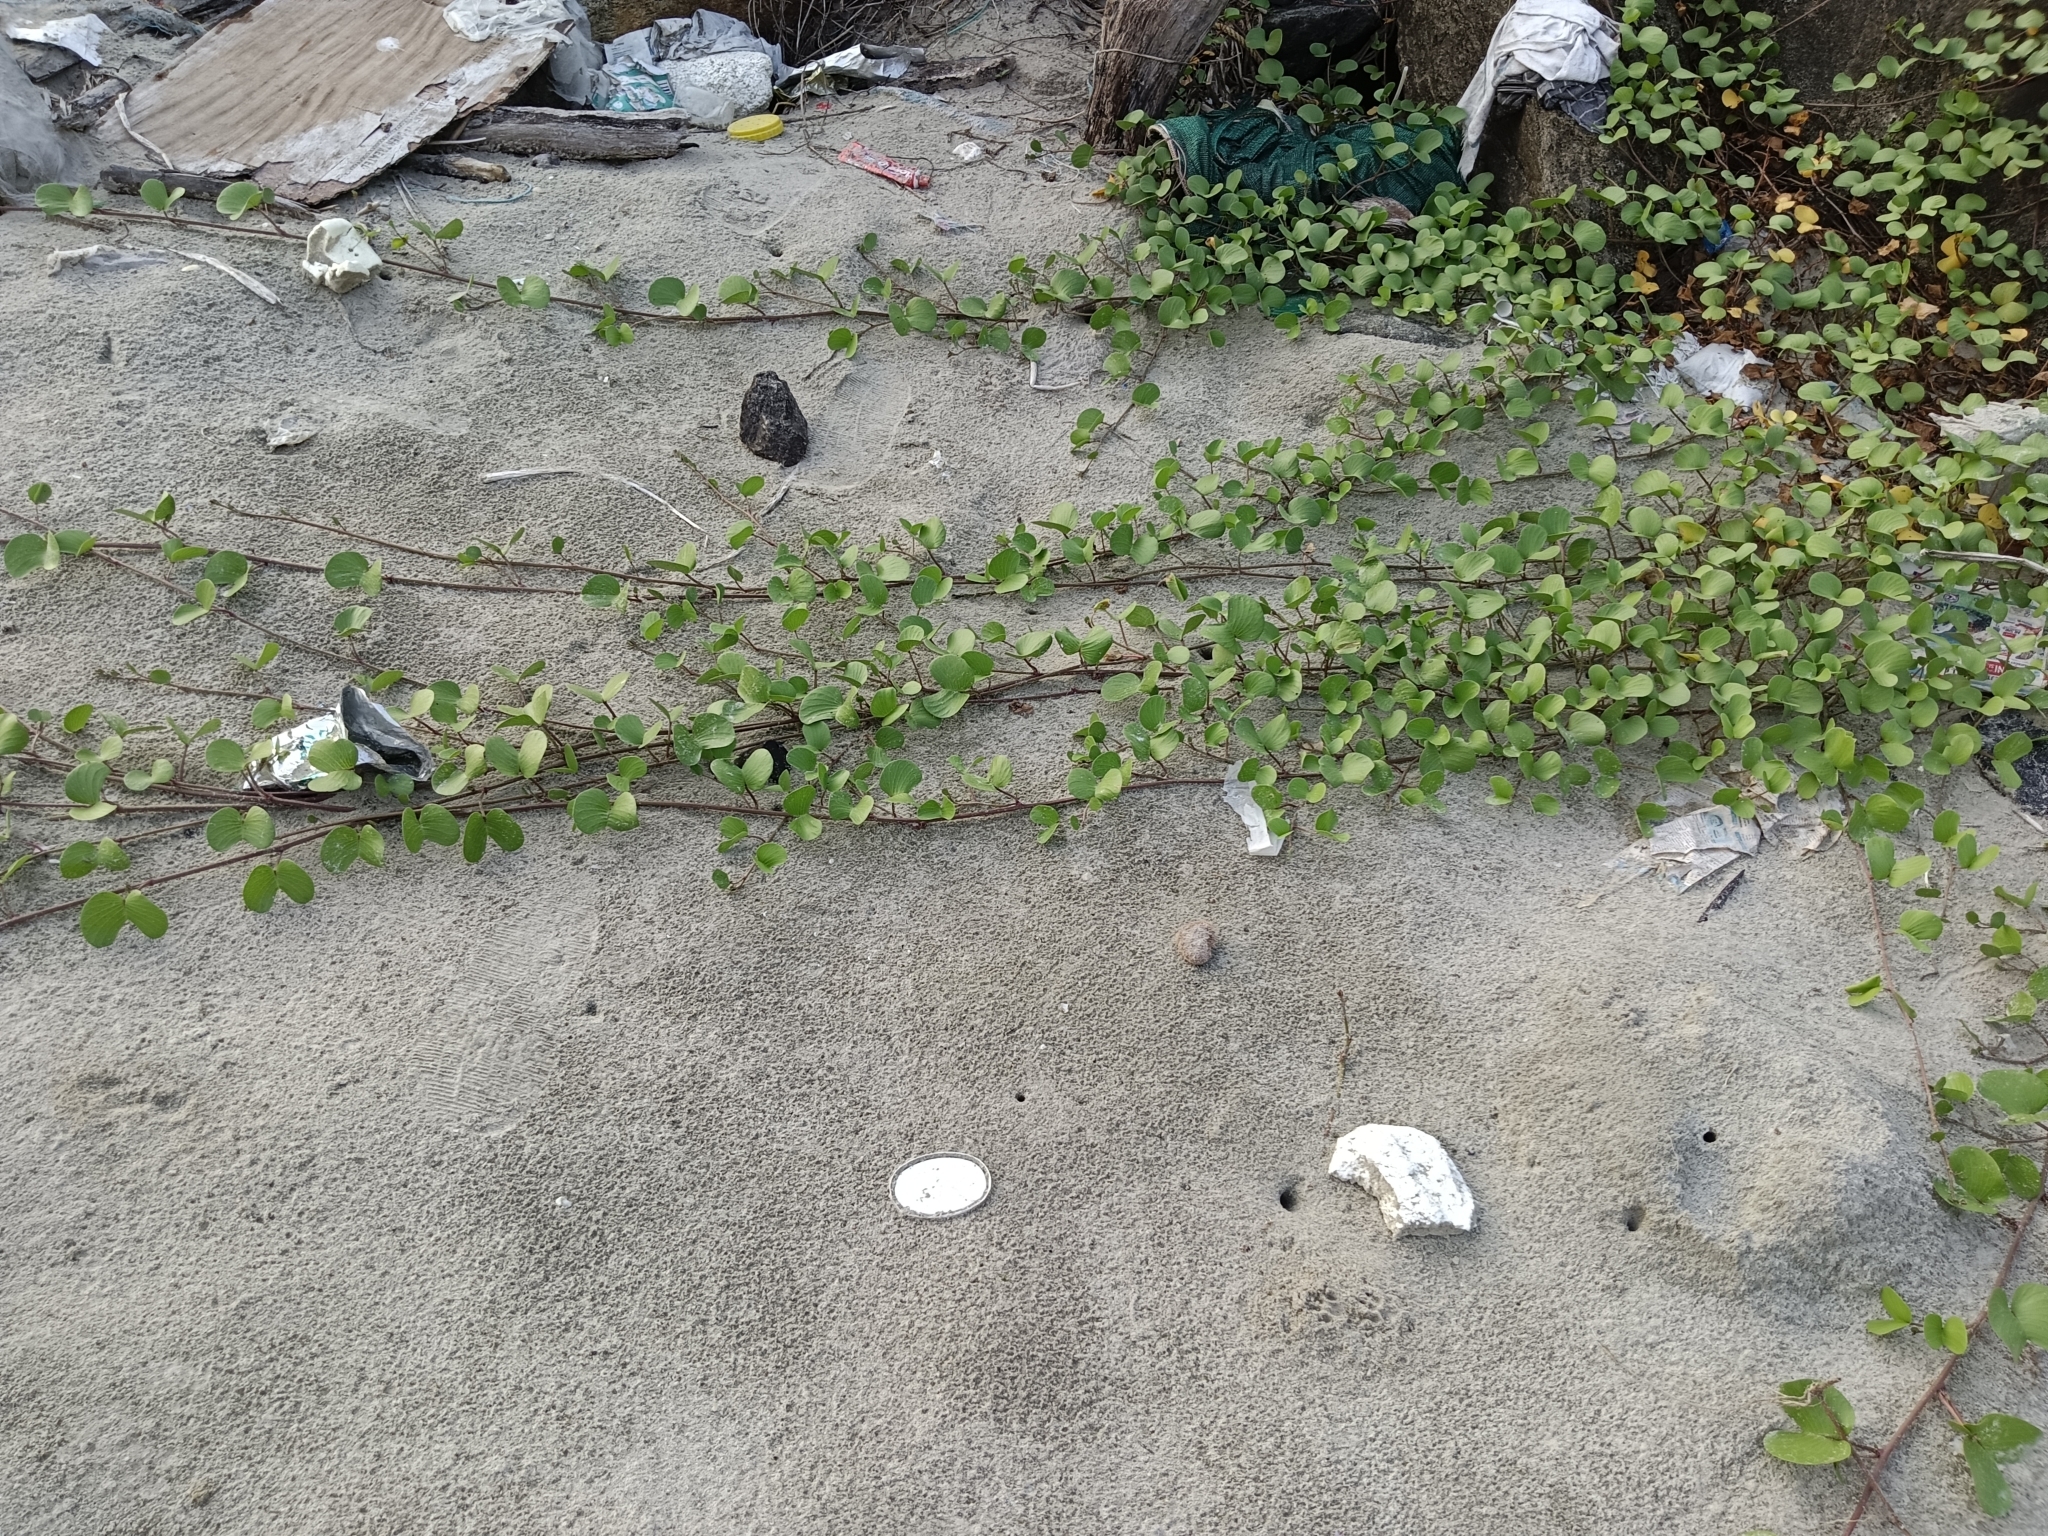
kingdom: Plantae
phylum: Tracheophyta
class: Magnoliopsida
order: Solanales
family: Convolvulaceae
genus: Ipomoea
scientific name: Ipomoea pes-caprae
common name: Beach morning glory
